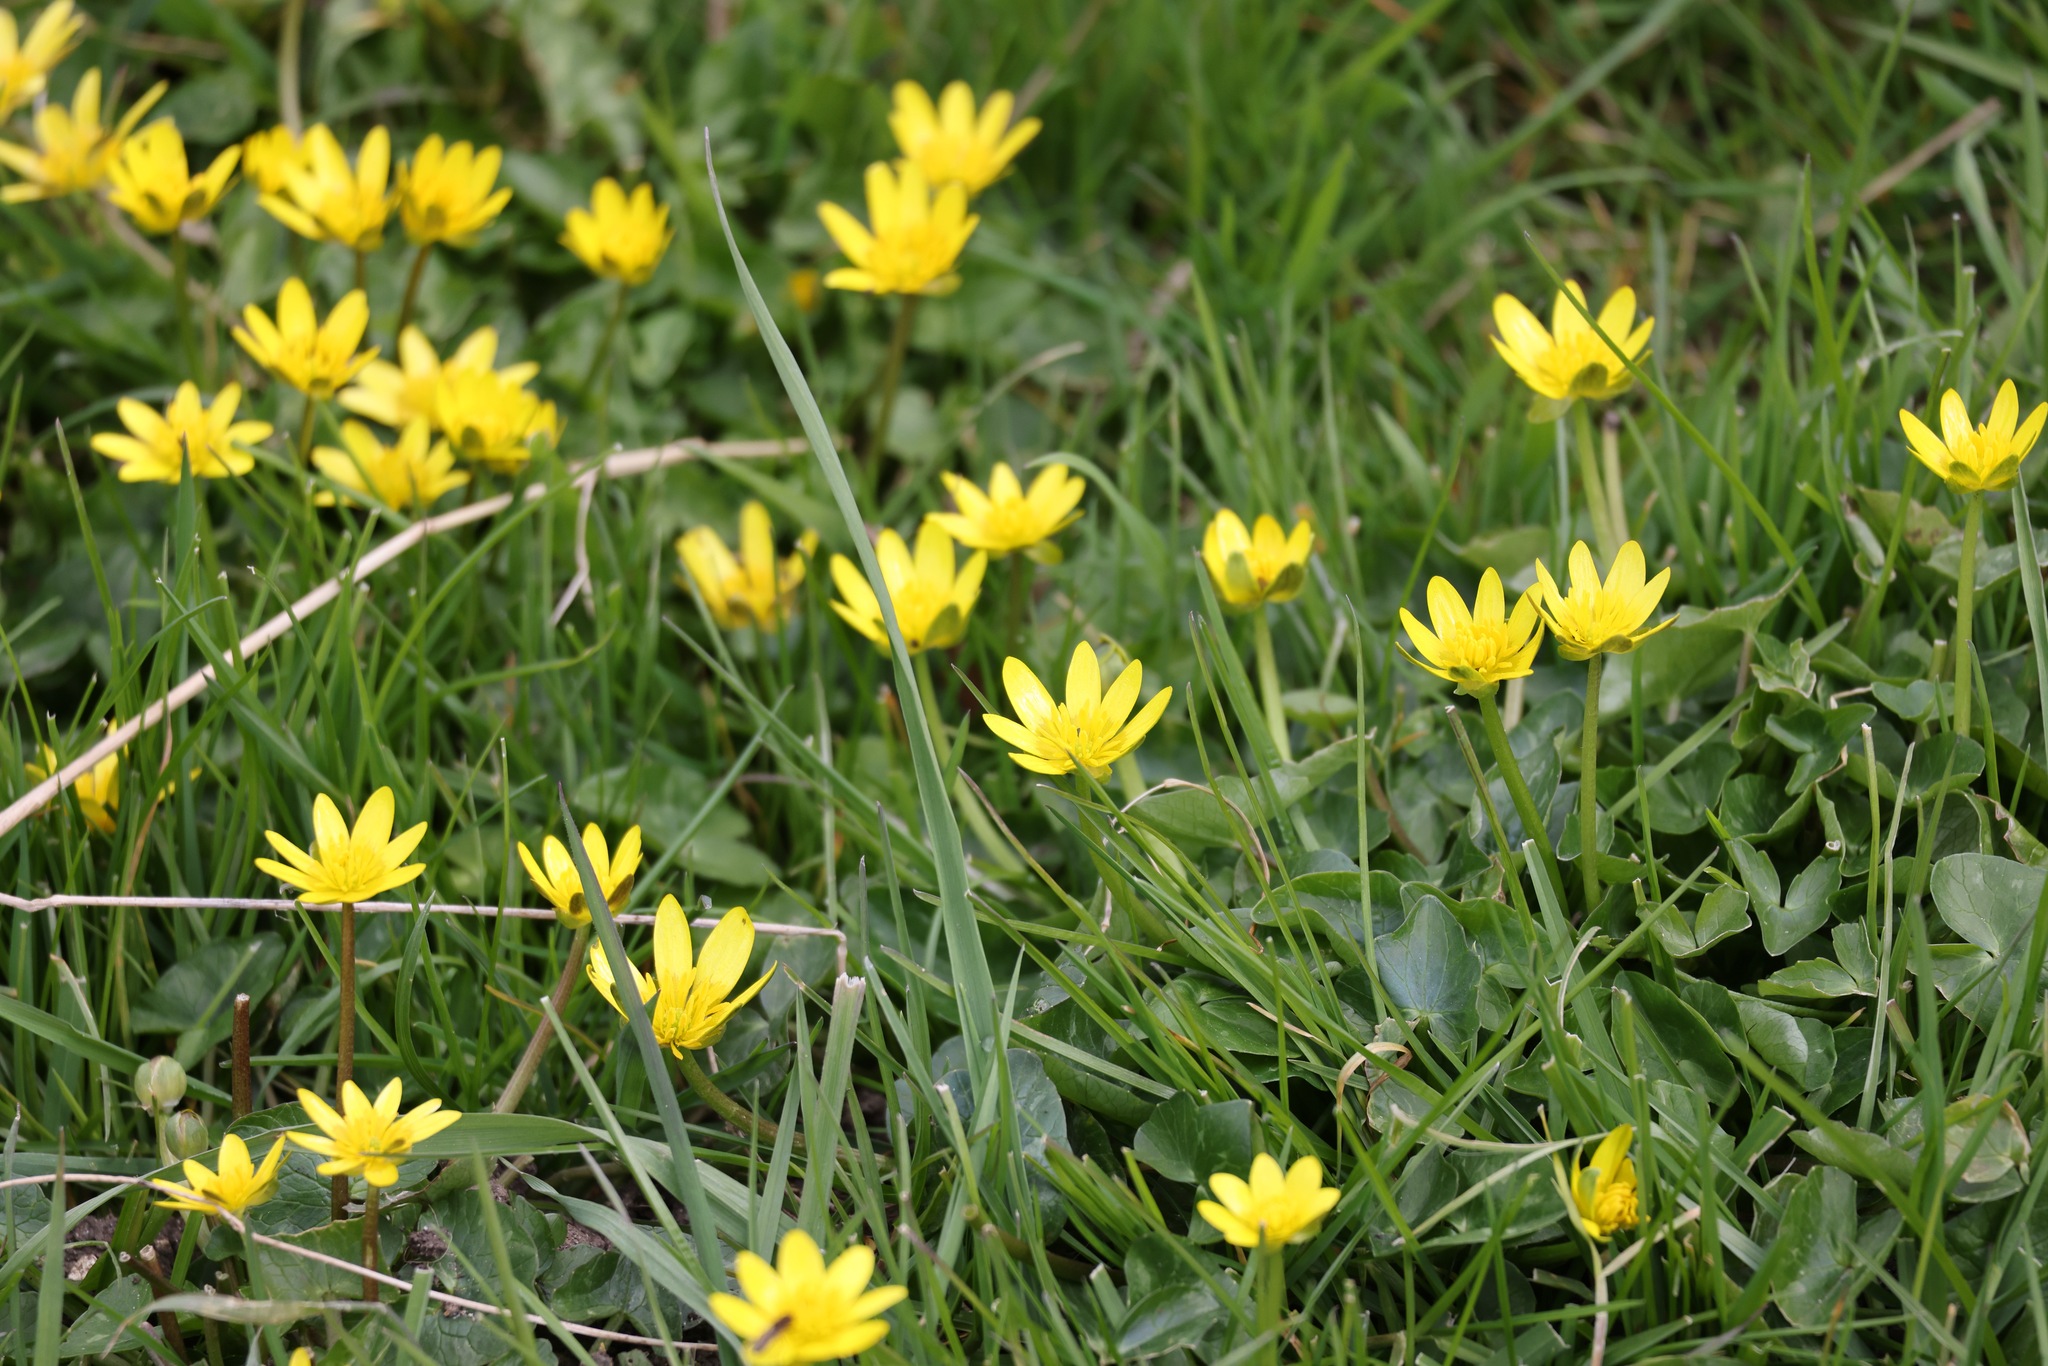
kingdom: Plantae
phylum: Tracheophyta
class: Magnoliopsida
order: Ranunculales
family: Ranunculaceae
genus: Ficaria
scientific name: Ficaria verna
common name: Lesser celandine
